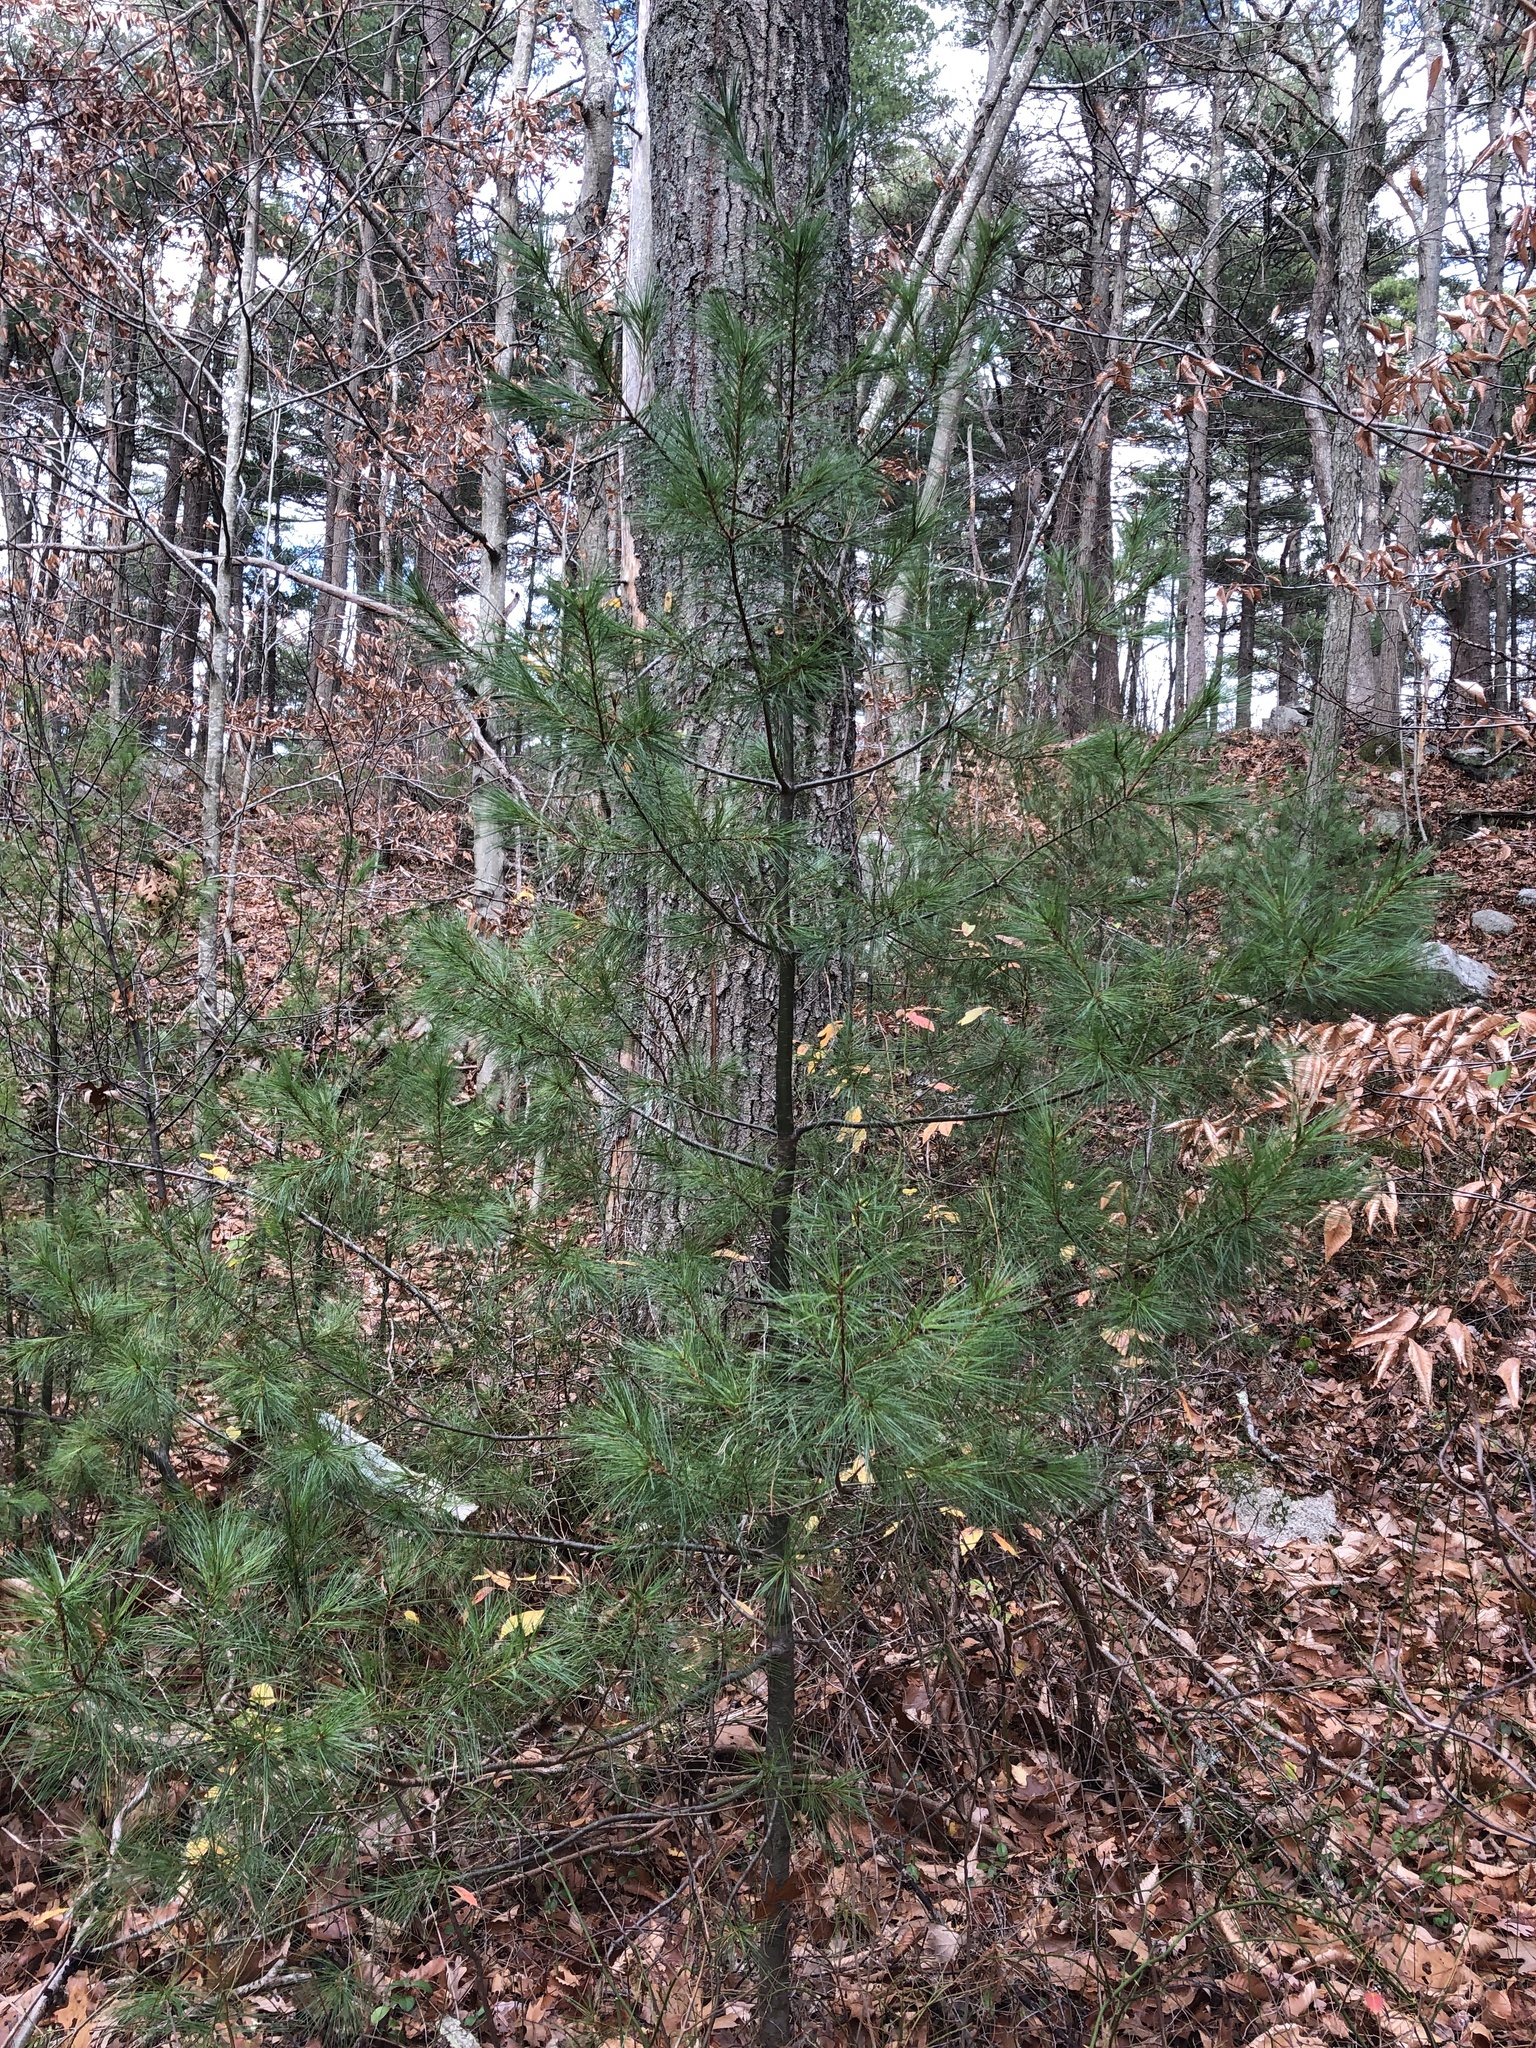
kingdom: Plantae
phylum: Tracheophyta
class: Pinopsida
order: Pinales
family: Pinaceae
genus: Pinus
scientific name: Pinus strobus
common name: Weymouth pine
